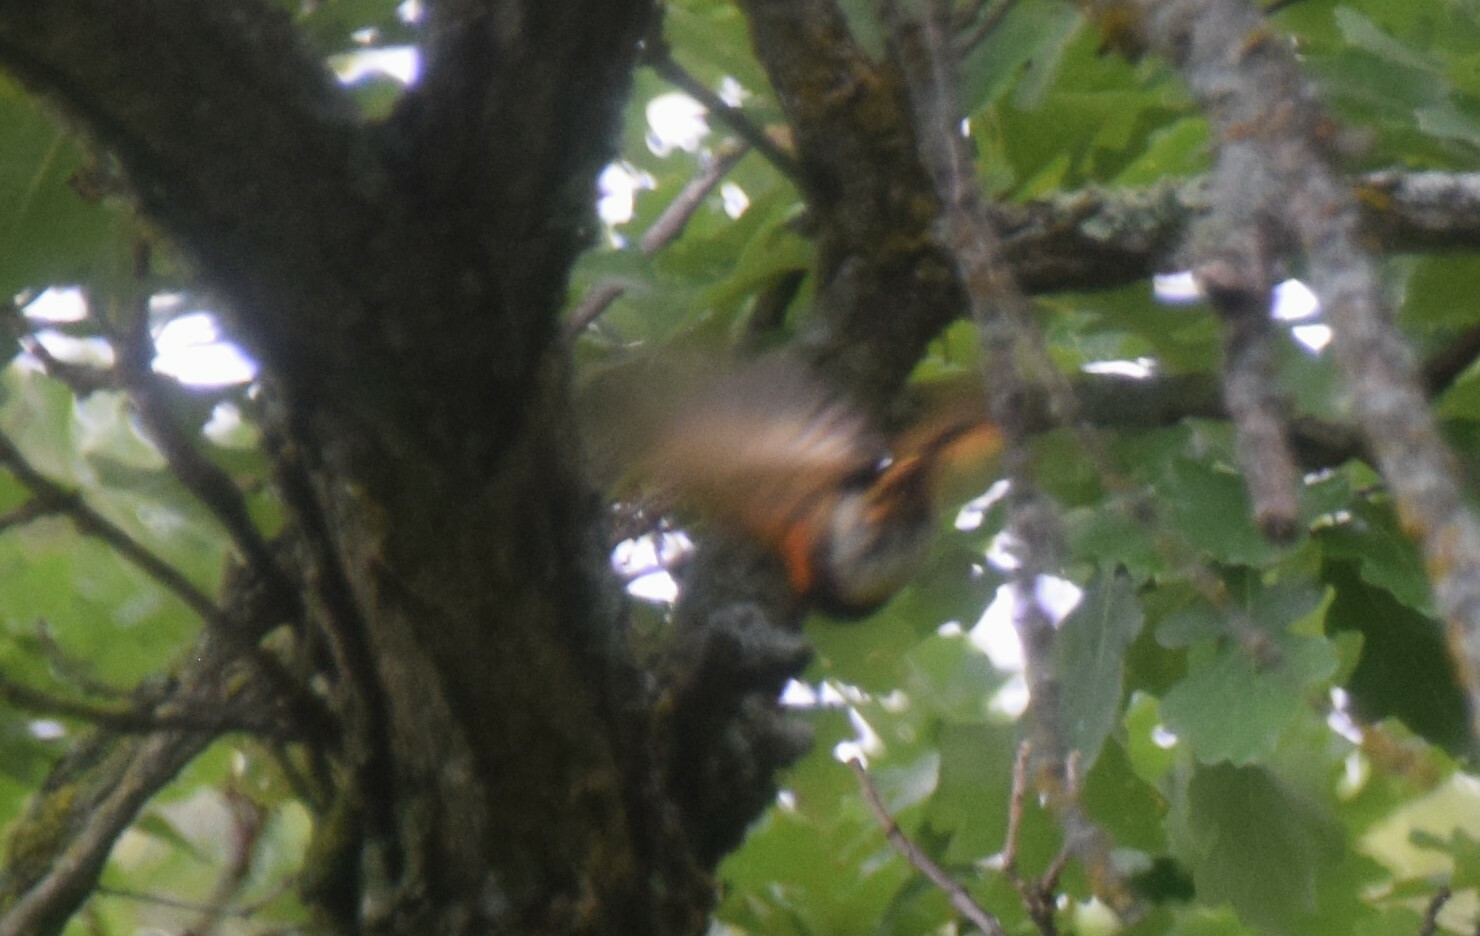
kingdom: Animalia
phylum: Chordata
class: Aves
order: Passeriformes
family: Parulidae
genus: Setophaga
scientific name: Setophaga ruticilla
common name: American redstart
